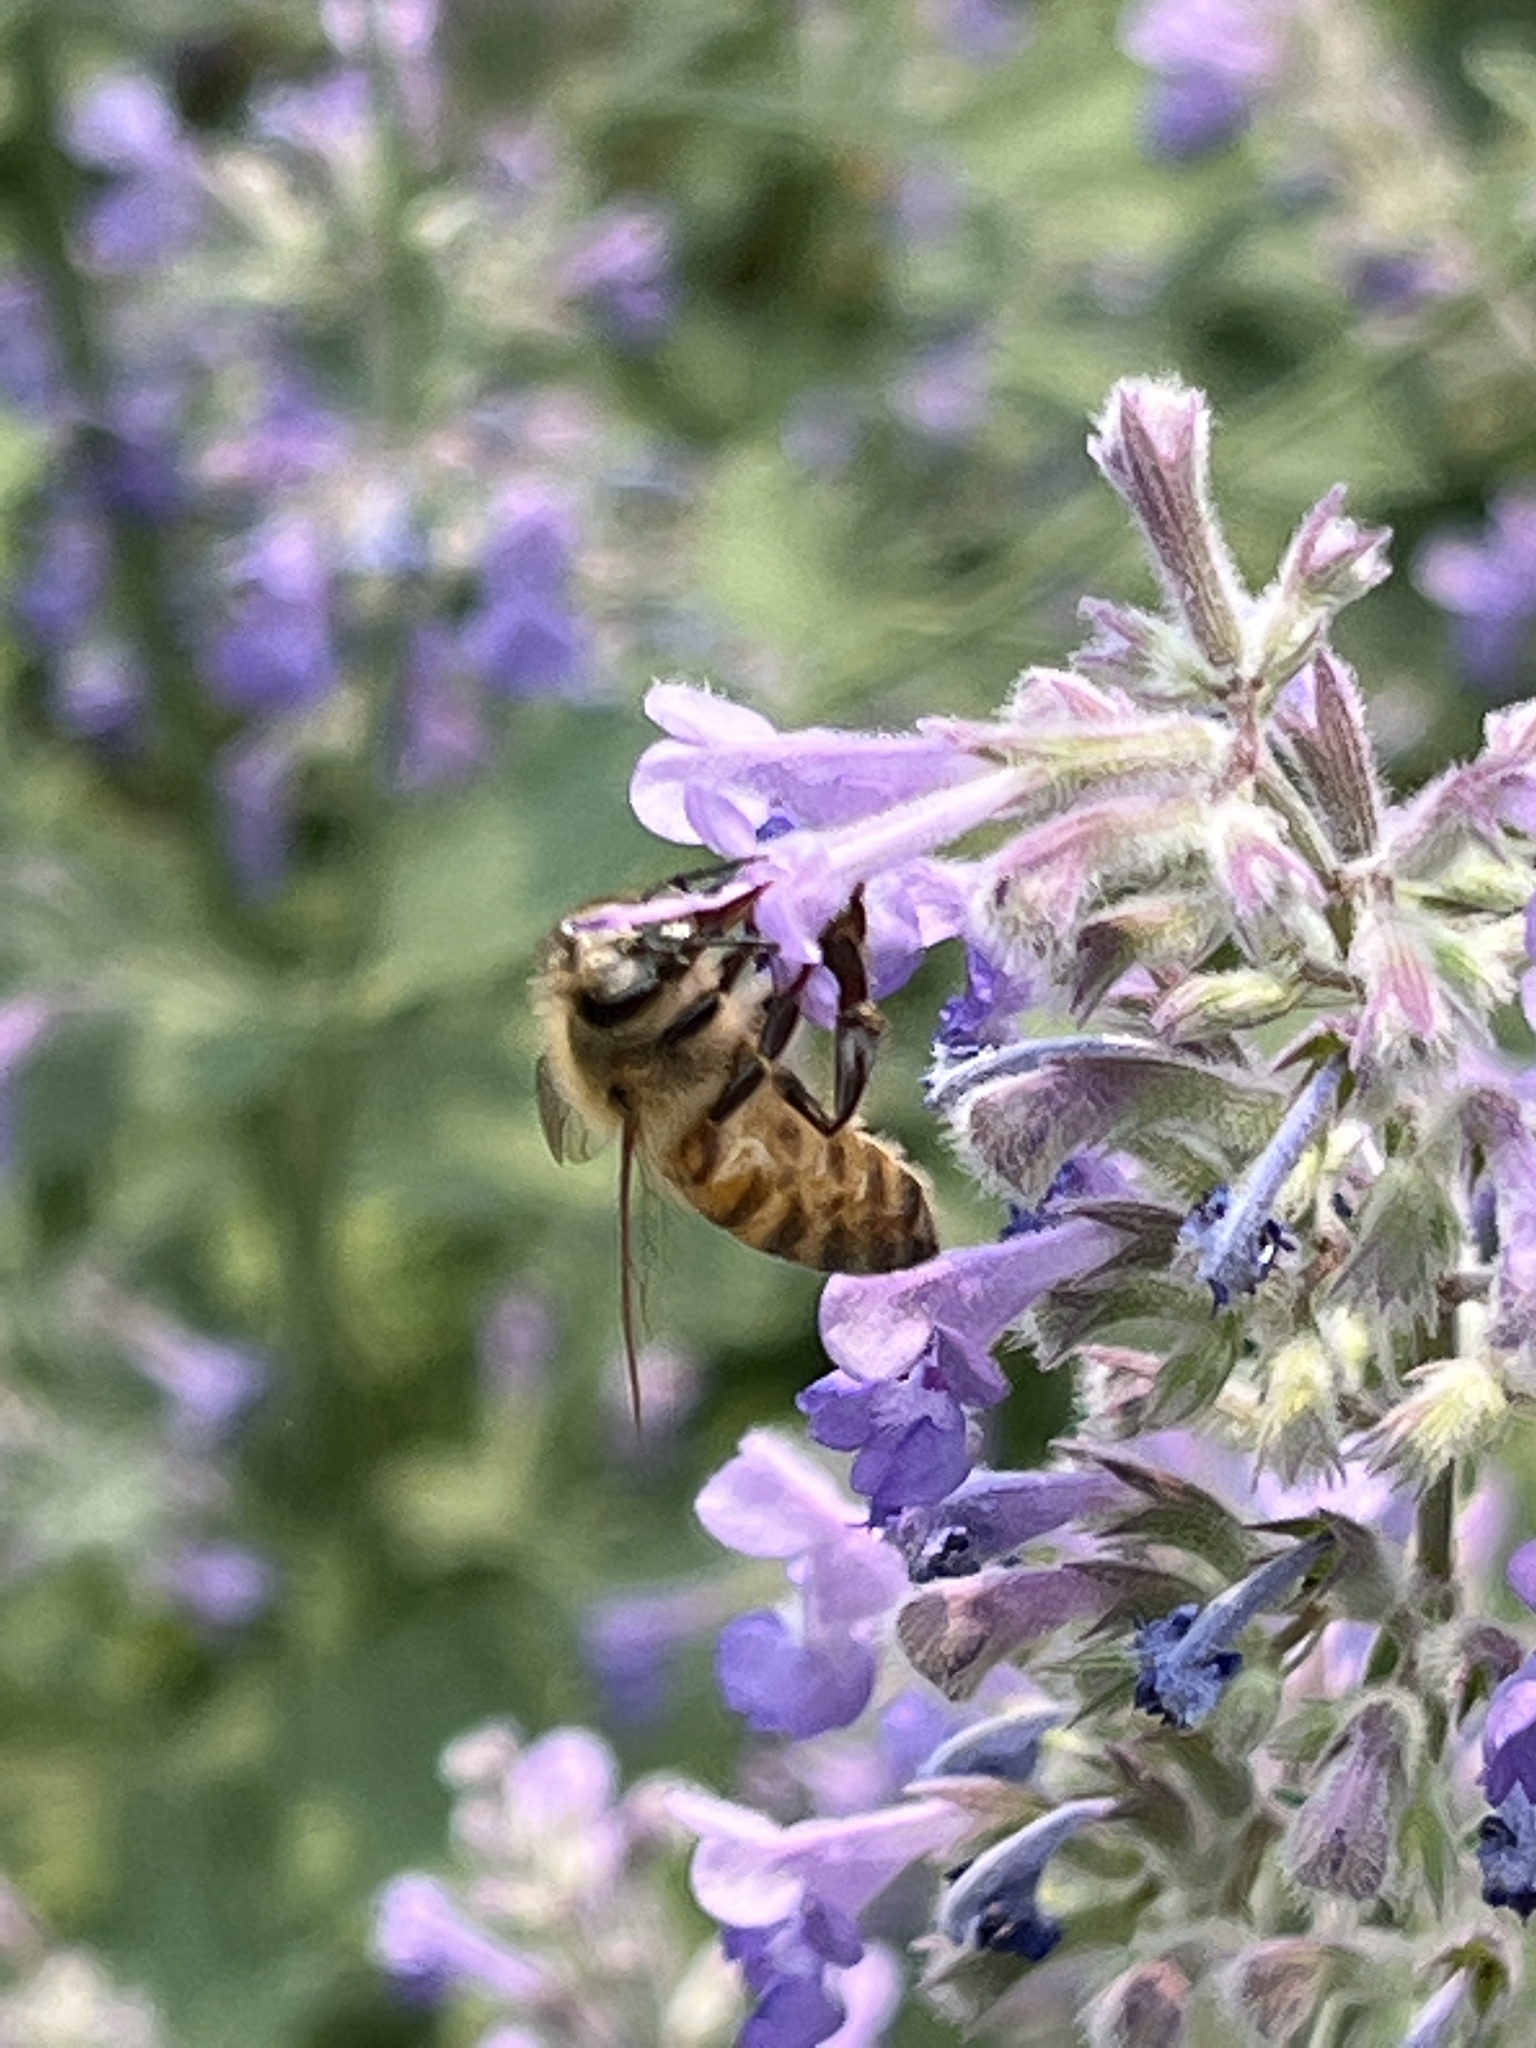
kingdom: Animalia
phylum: Arthropoda
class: Insecta
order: Hymenoptera
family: Apidae
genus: Apis
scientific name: Apis mellifera
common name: Honey bee
